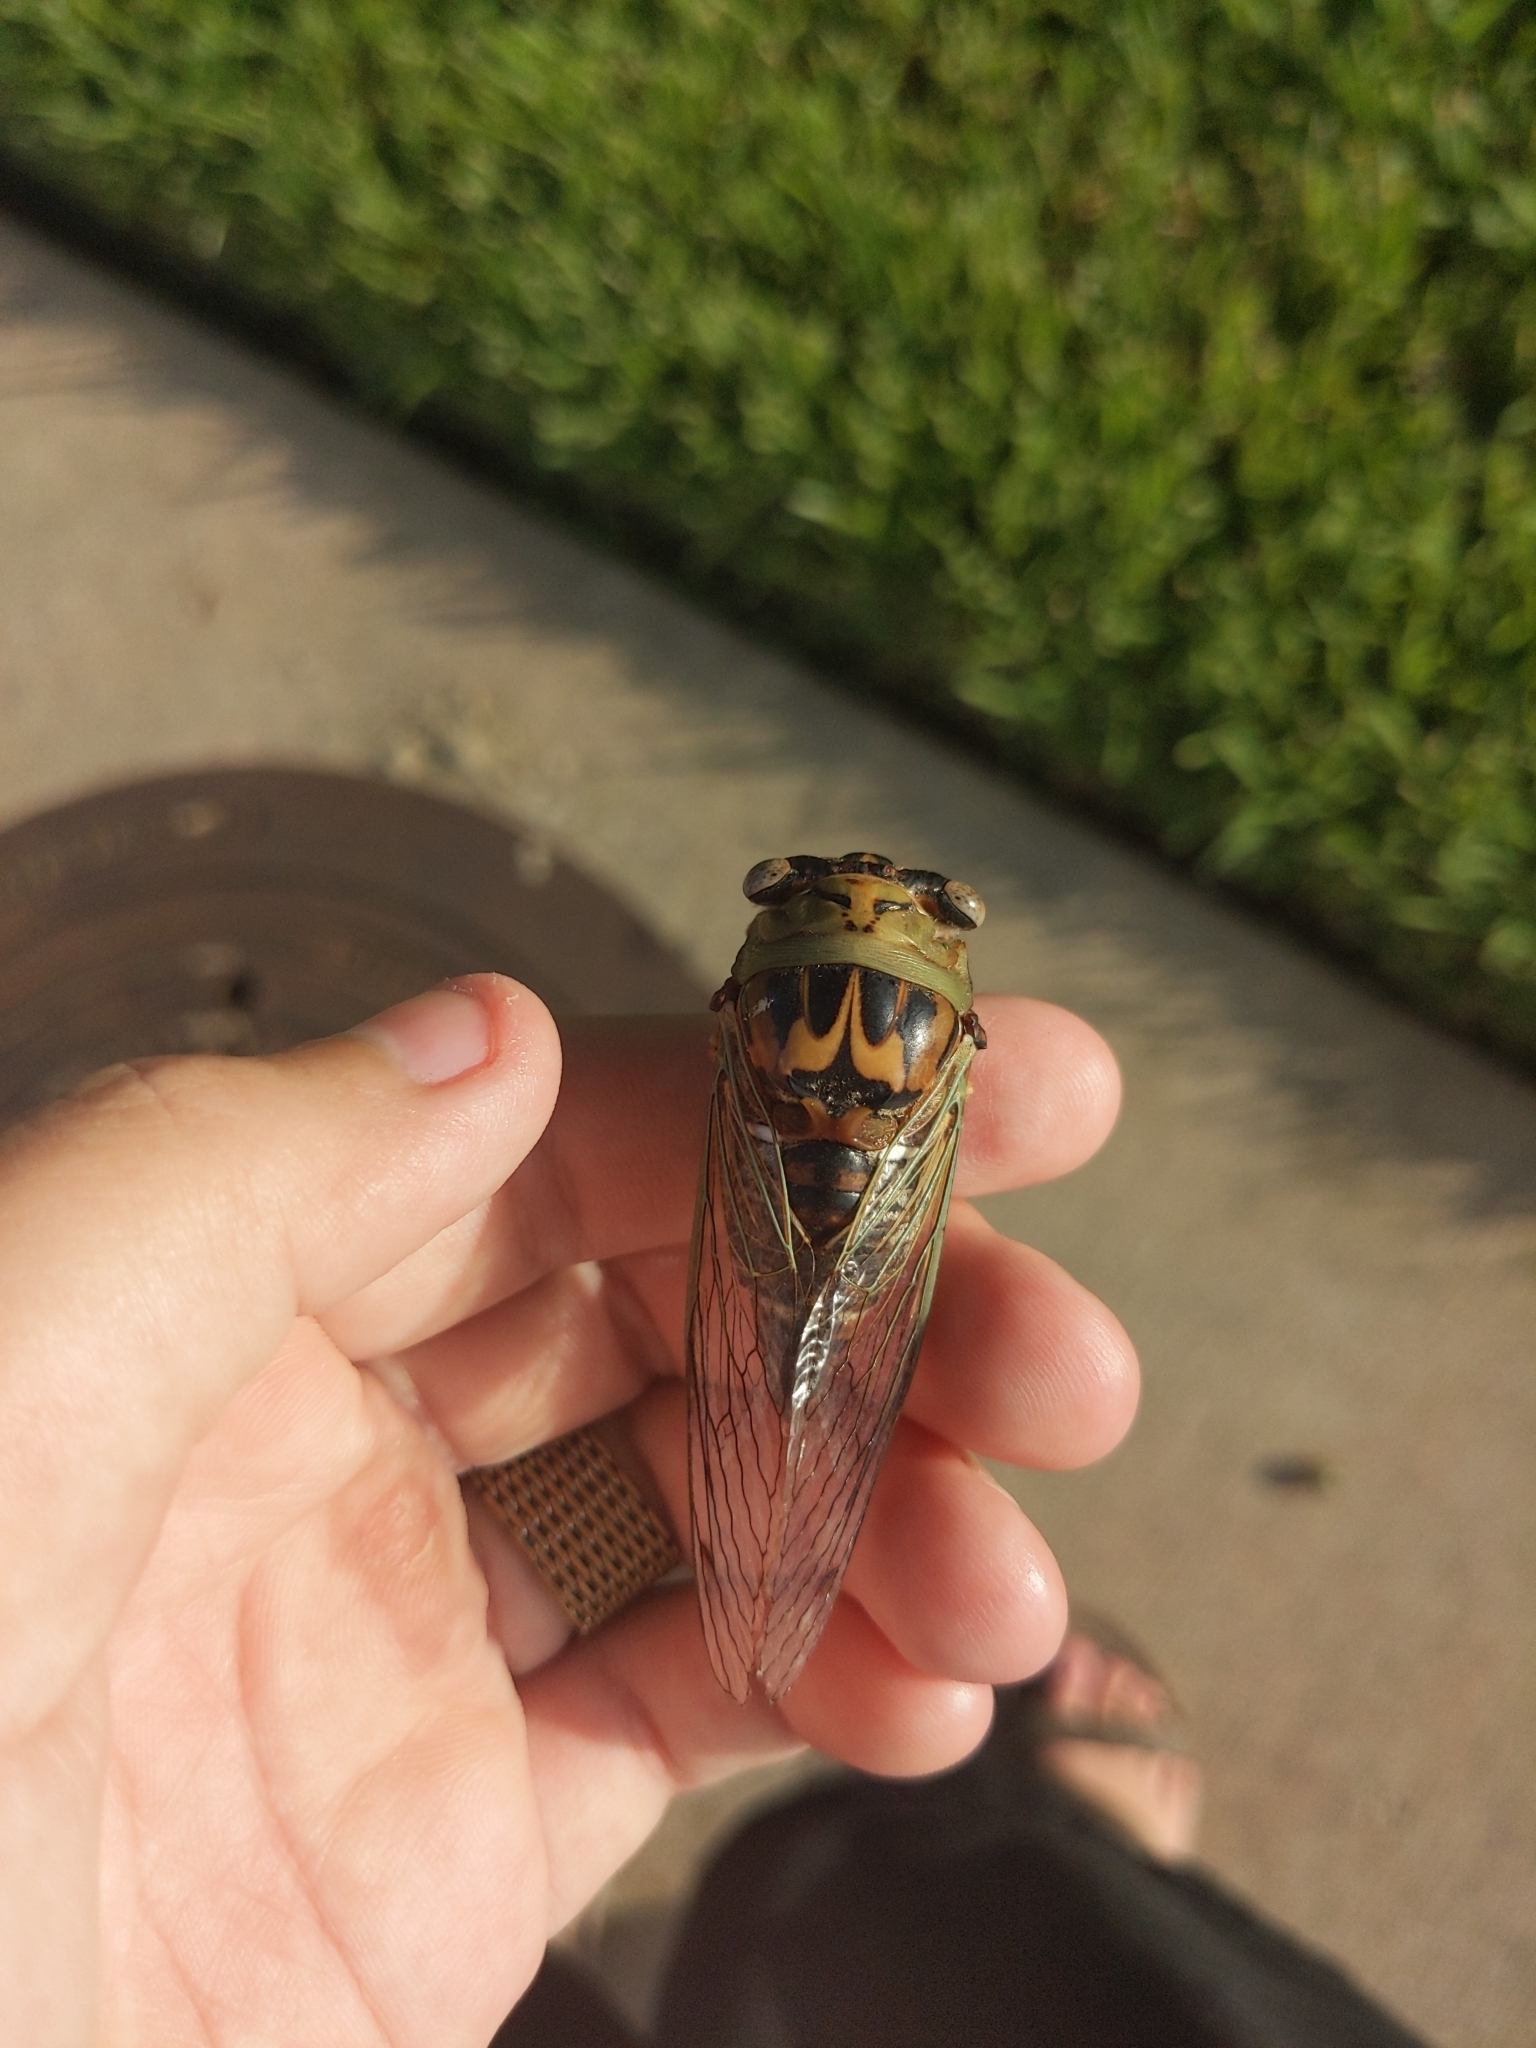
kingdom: Animalia
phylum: Arthropoda
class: Insecta
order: Hemiptera
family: Cicadidae
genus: Megatibicen
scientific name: Megatibicen resh
